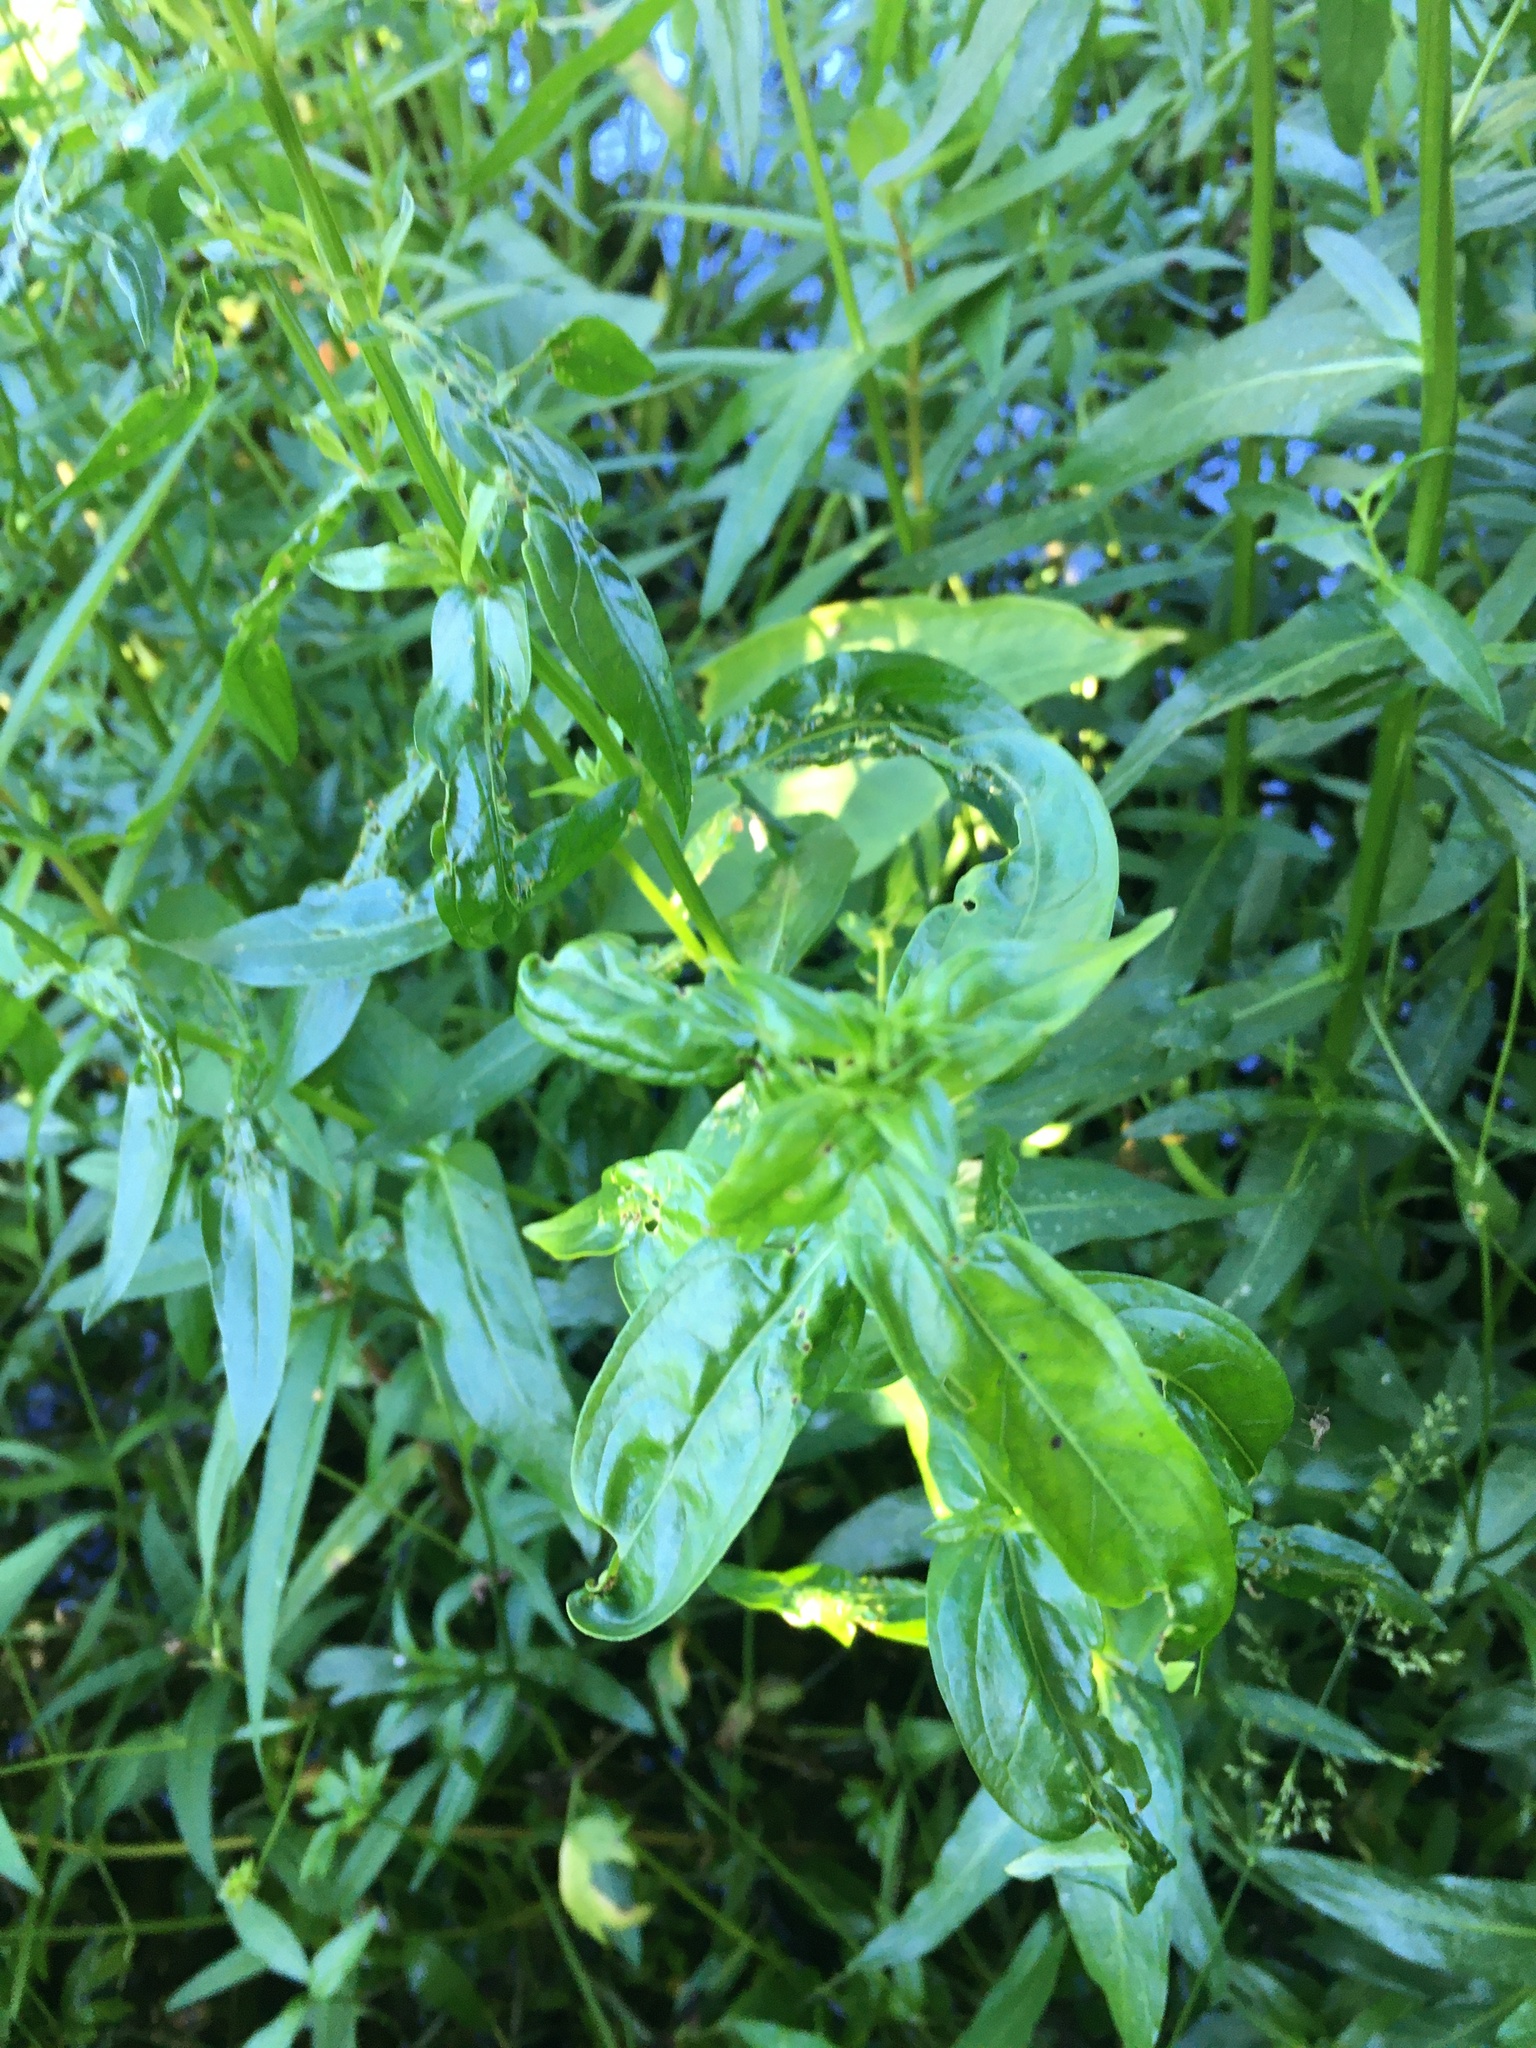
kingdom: Plantae
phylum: Tracheophyta
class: Magnoliopsida
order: Myrtales
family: Lythraceae
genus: Lythrum
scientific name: Lythrum salicaria
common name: Purple loosestrife
